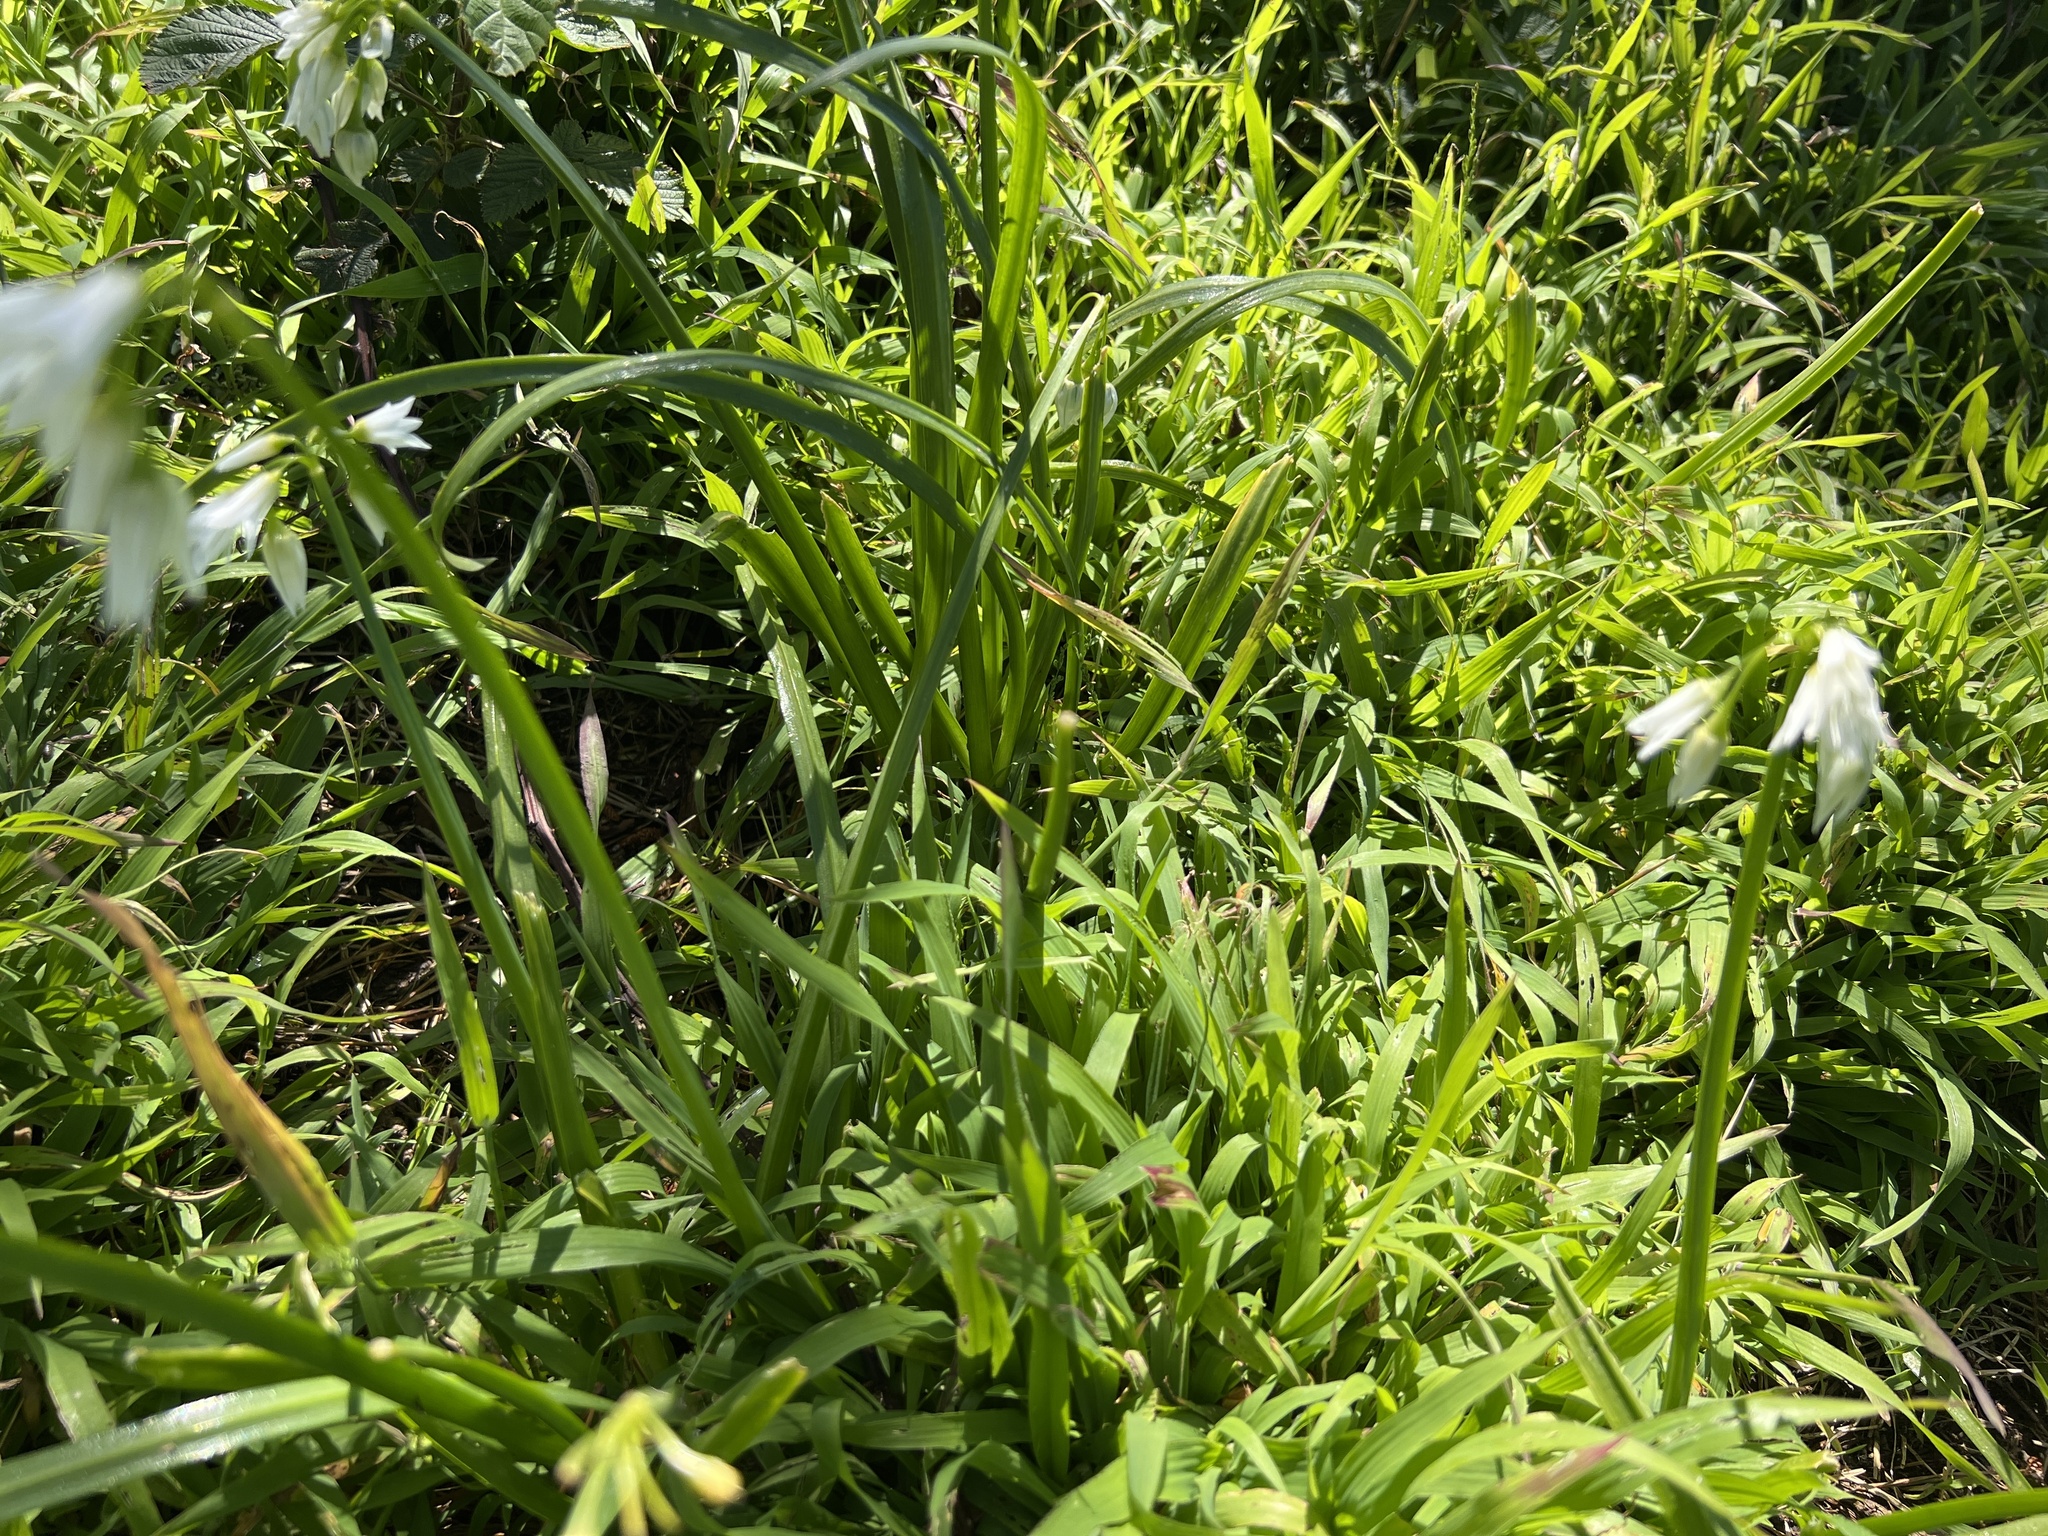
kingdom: Plantae
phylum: Tracheophyta
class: Liliopsida
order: Asparagales
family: Amaryllidaceae
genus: Allium
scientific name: Allium triquetrum
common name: Three-cornered garlic
